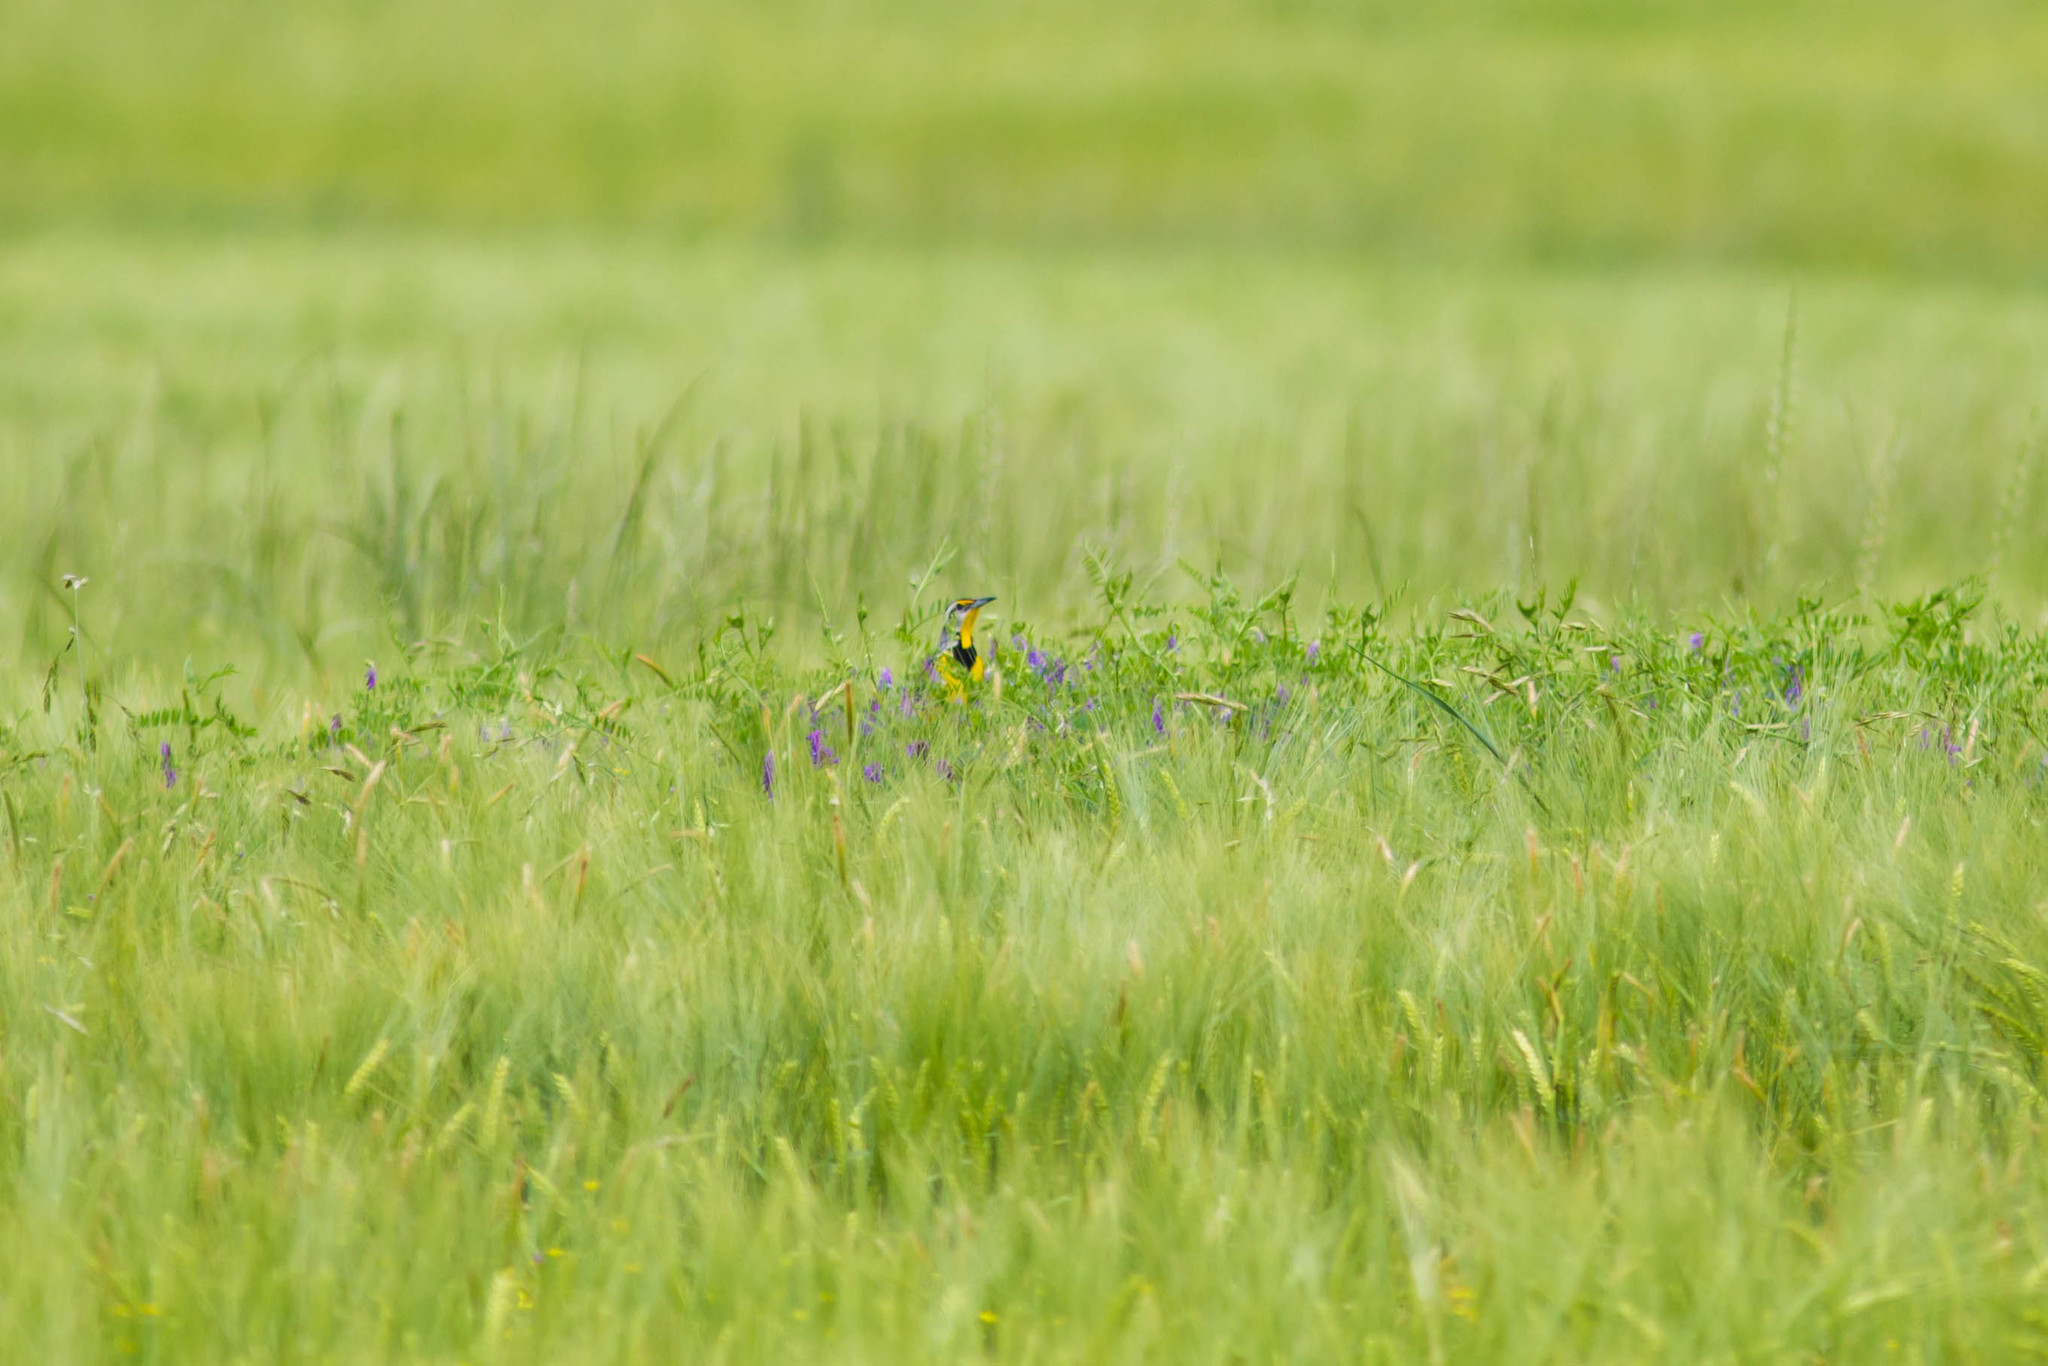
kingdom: Animalia
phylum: Chordata
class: Aves
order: Passeriformes
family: Icteridae
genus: Sturnella
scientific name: Sturnella magna
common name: Eastern meadowlark
